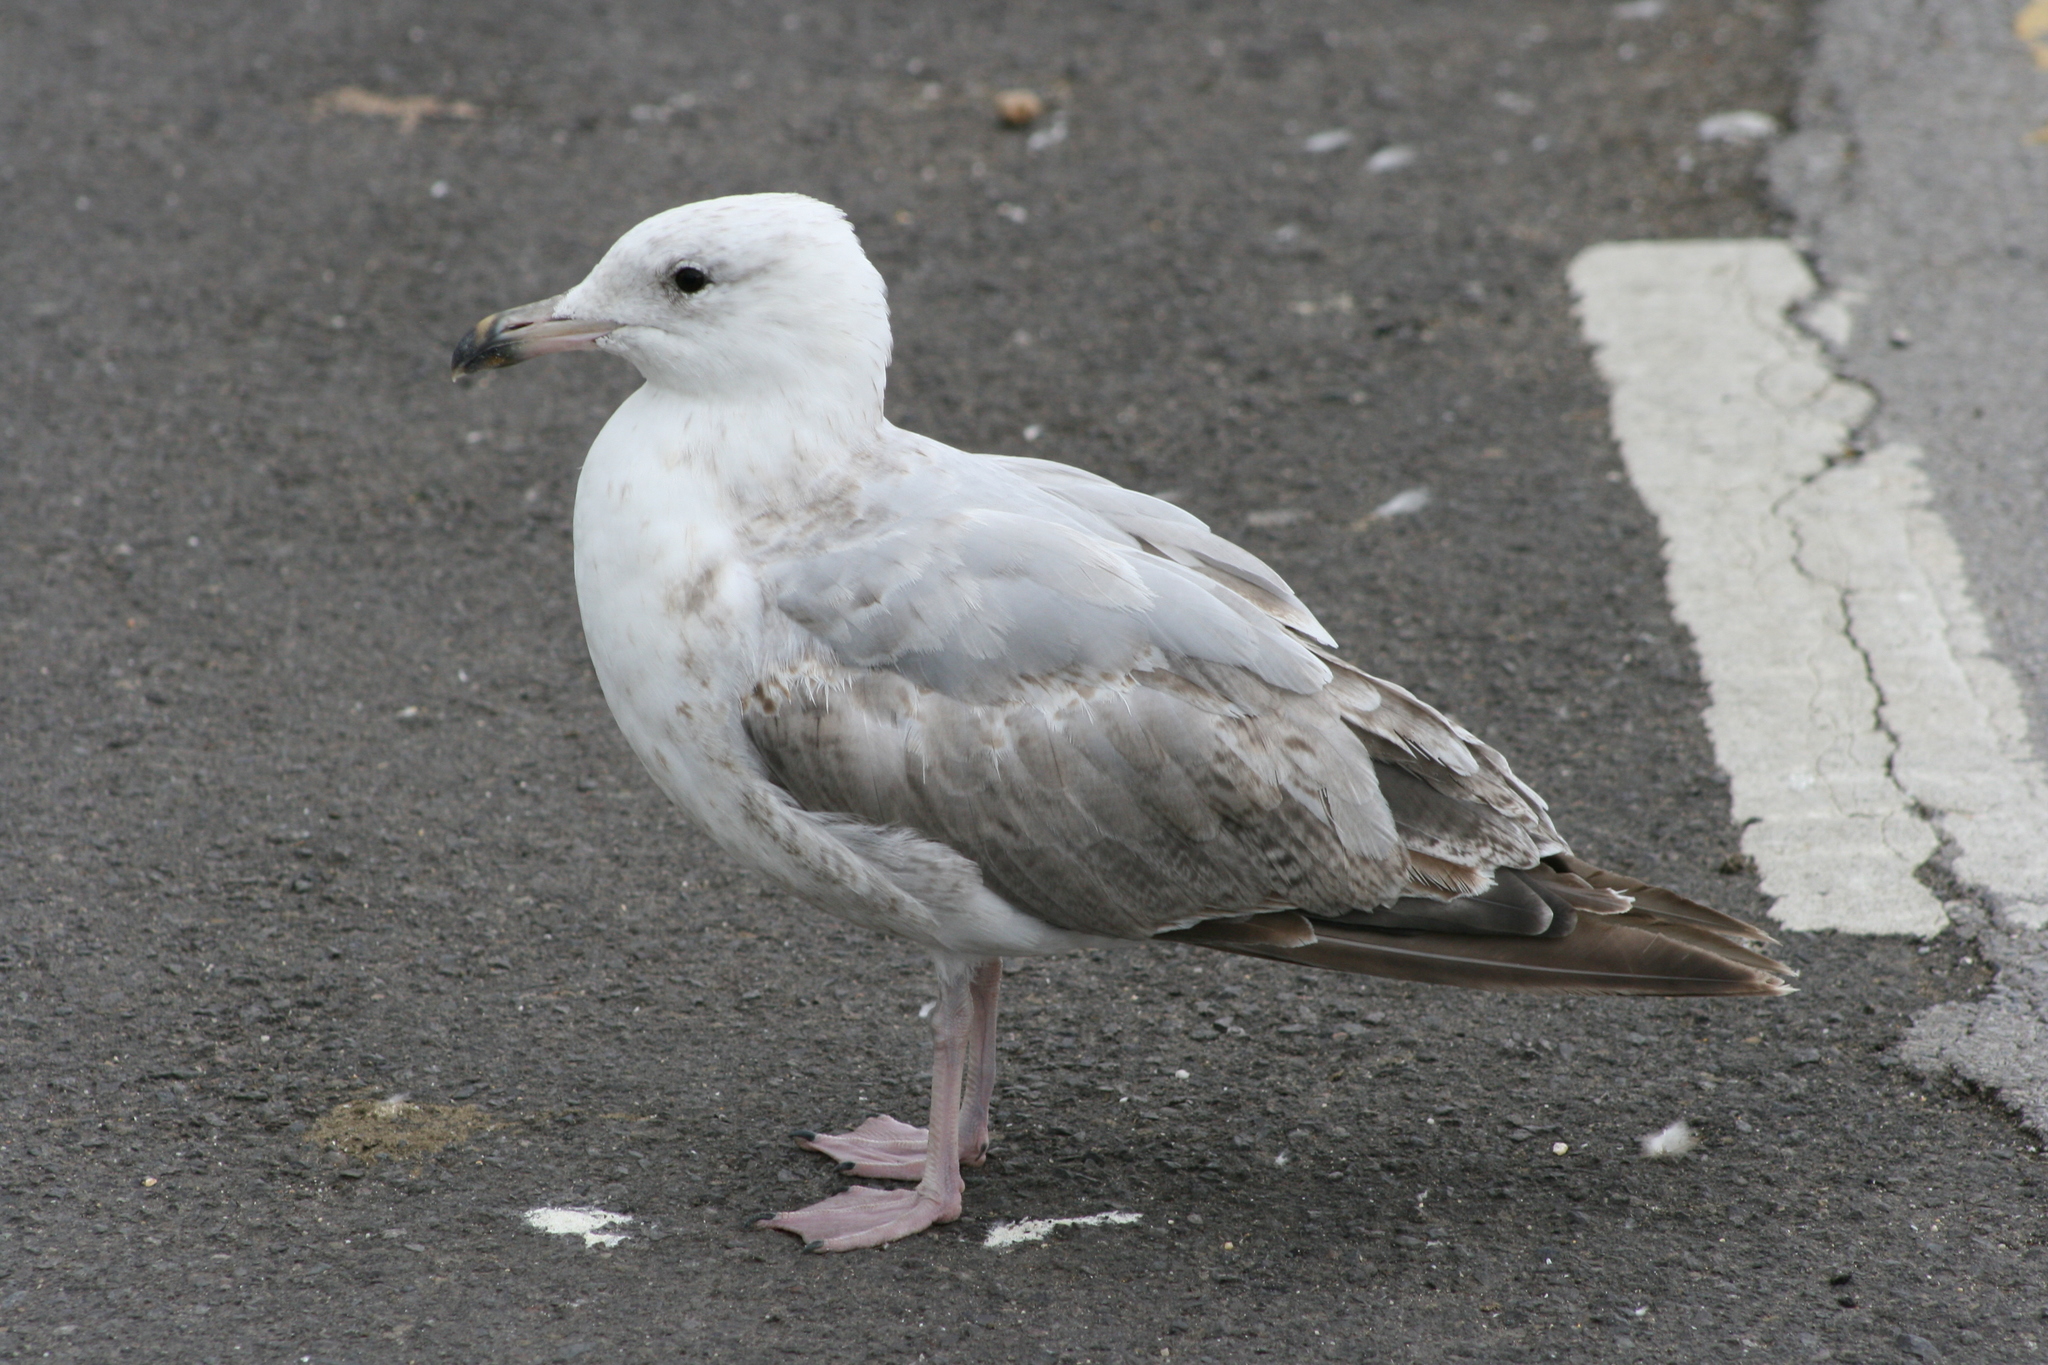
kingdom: Animalia
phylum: Chordata
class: Aves
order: Charadriiformes
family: Laridae
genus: Larus
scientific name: Larus argentatus
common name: Herring gull
